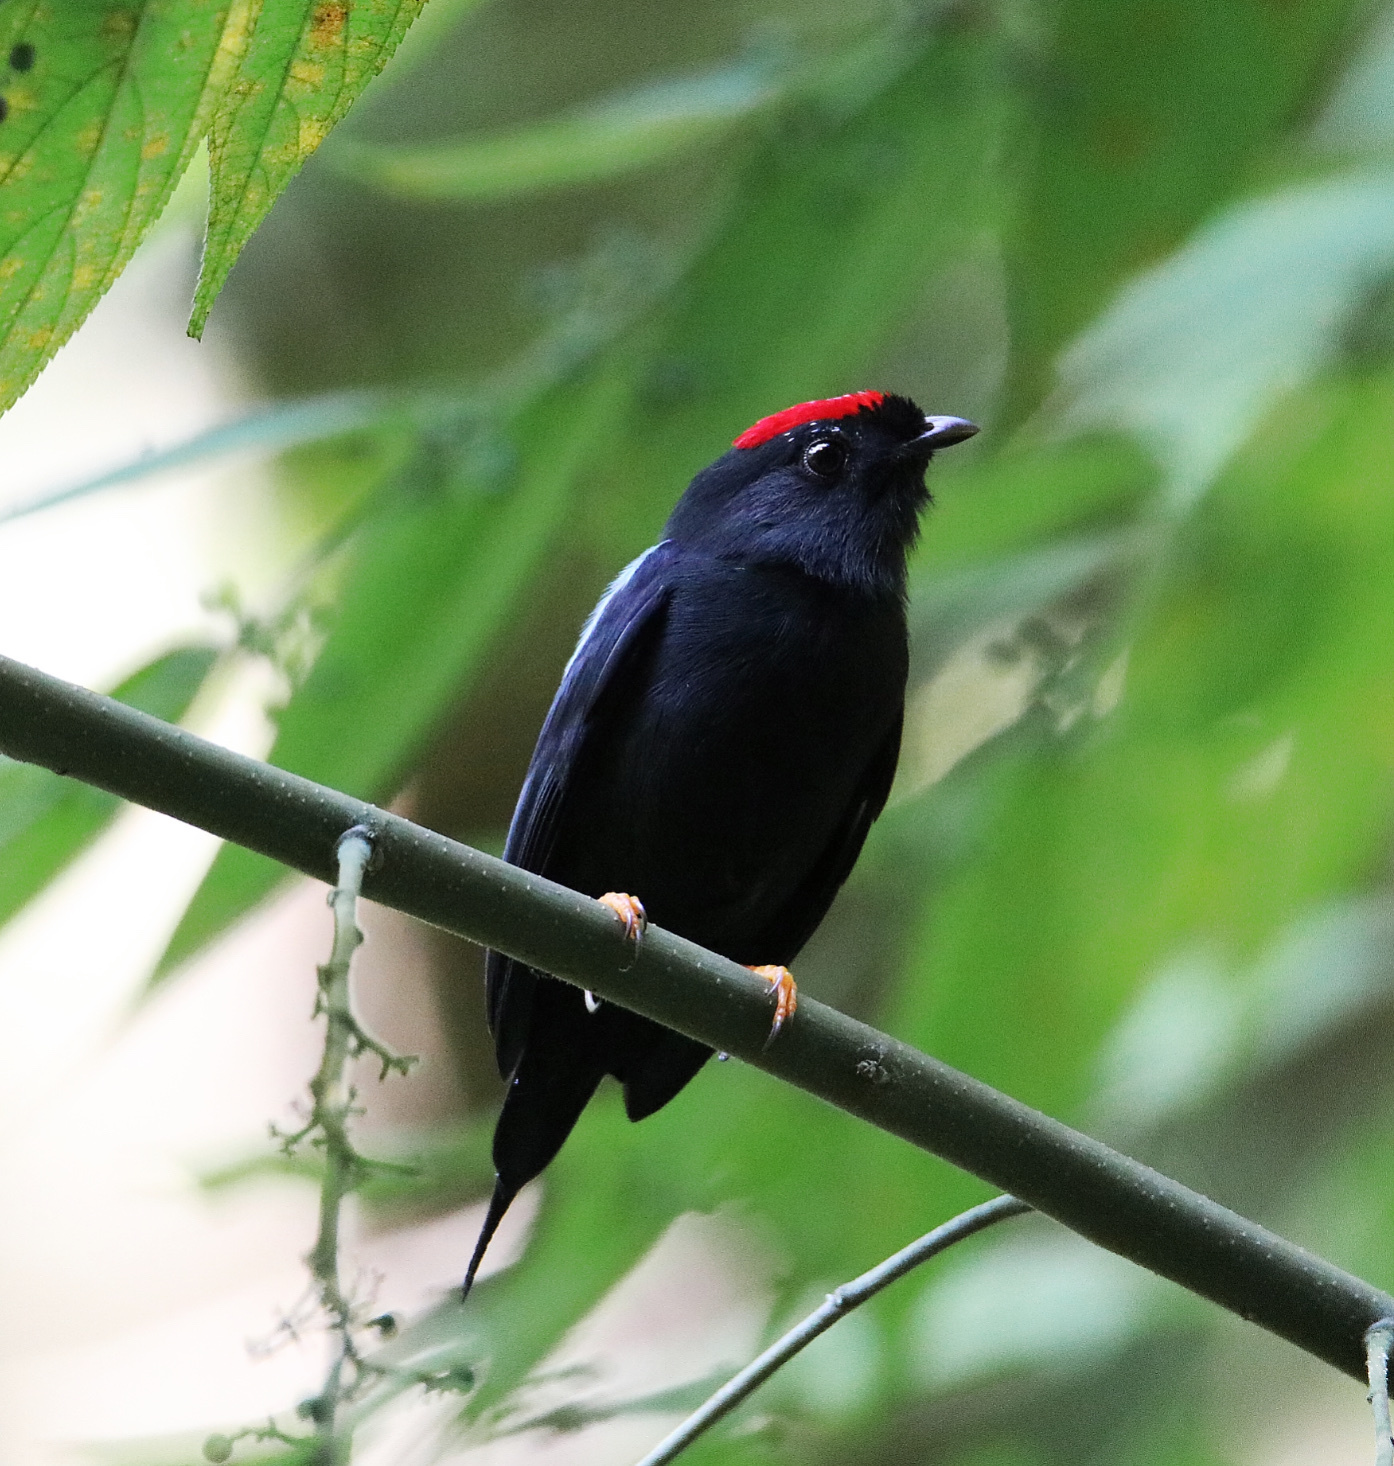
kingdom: Animalia
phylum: Chordata
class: Aves
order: Passeriformes
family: Pipridae
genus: Chiroxiphia
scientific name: Chiroxiphia lanceolata
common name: Lance-tailed manakin
